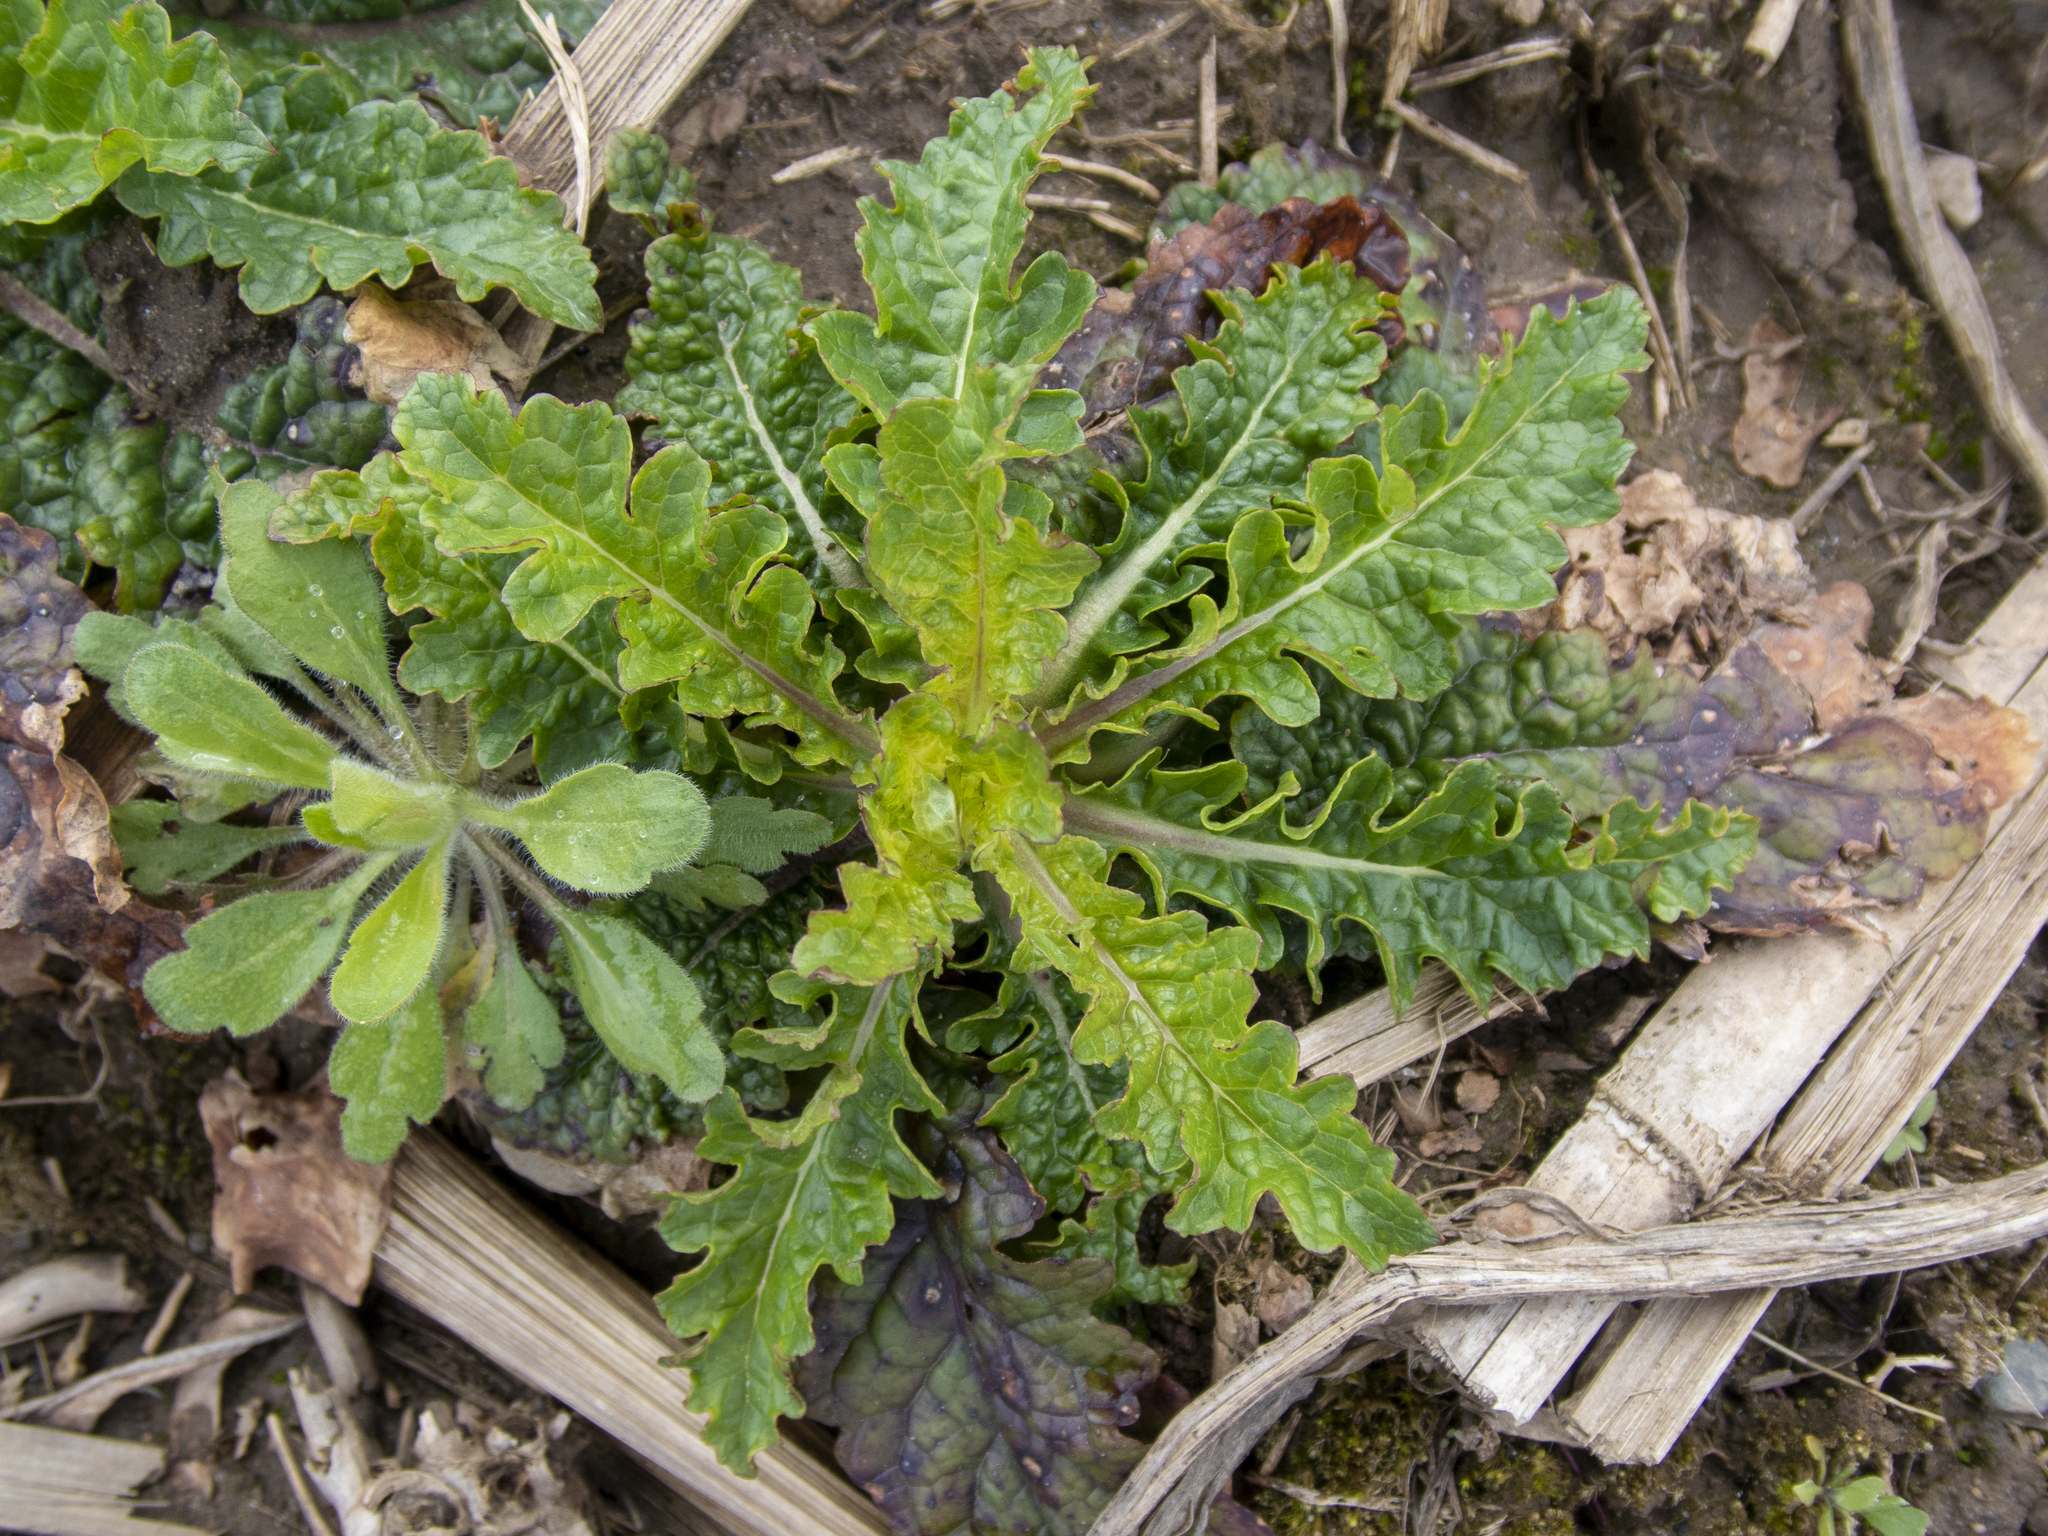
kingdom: Plantae
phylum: Tracheophyta
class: Magnoliopsida
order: Lamiales
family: Scrophulariaceae
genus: Verbascum
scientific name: Verbascum blattaria
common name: Moth mullein
